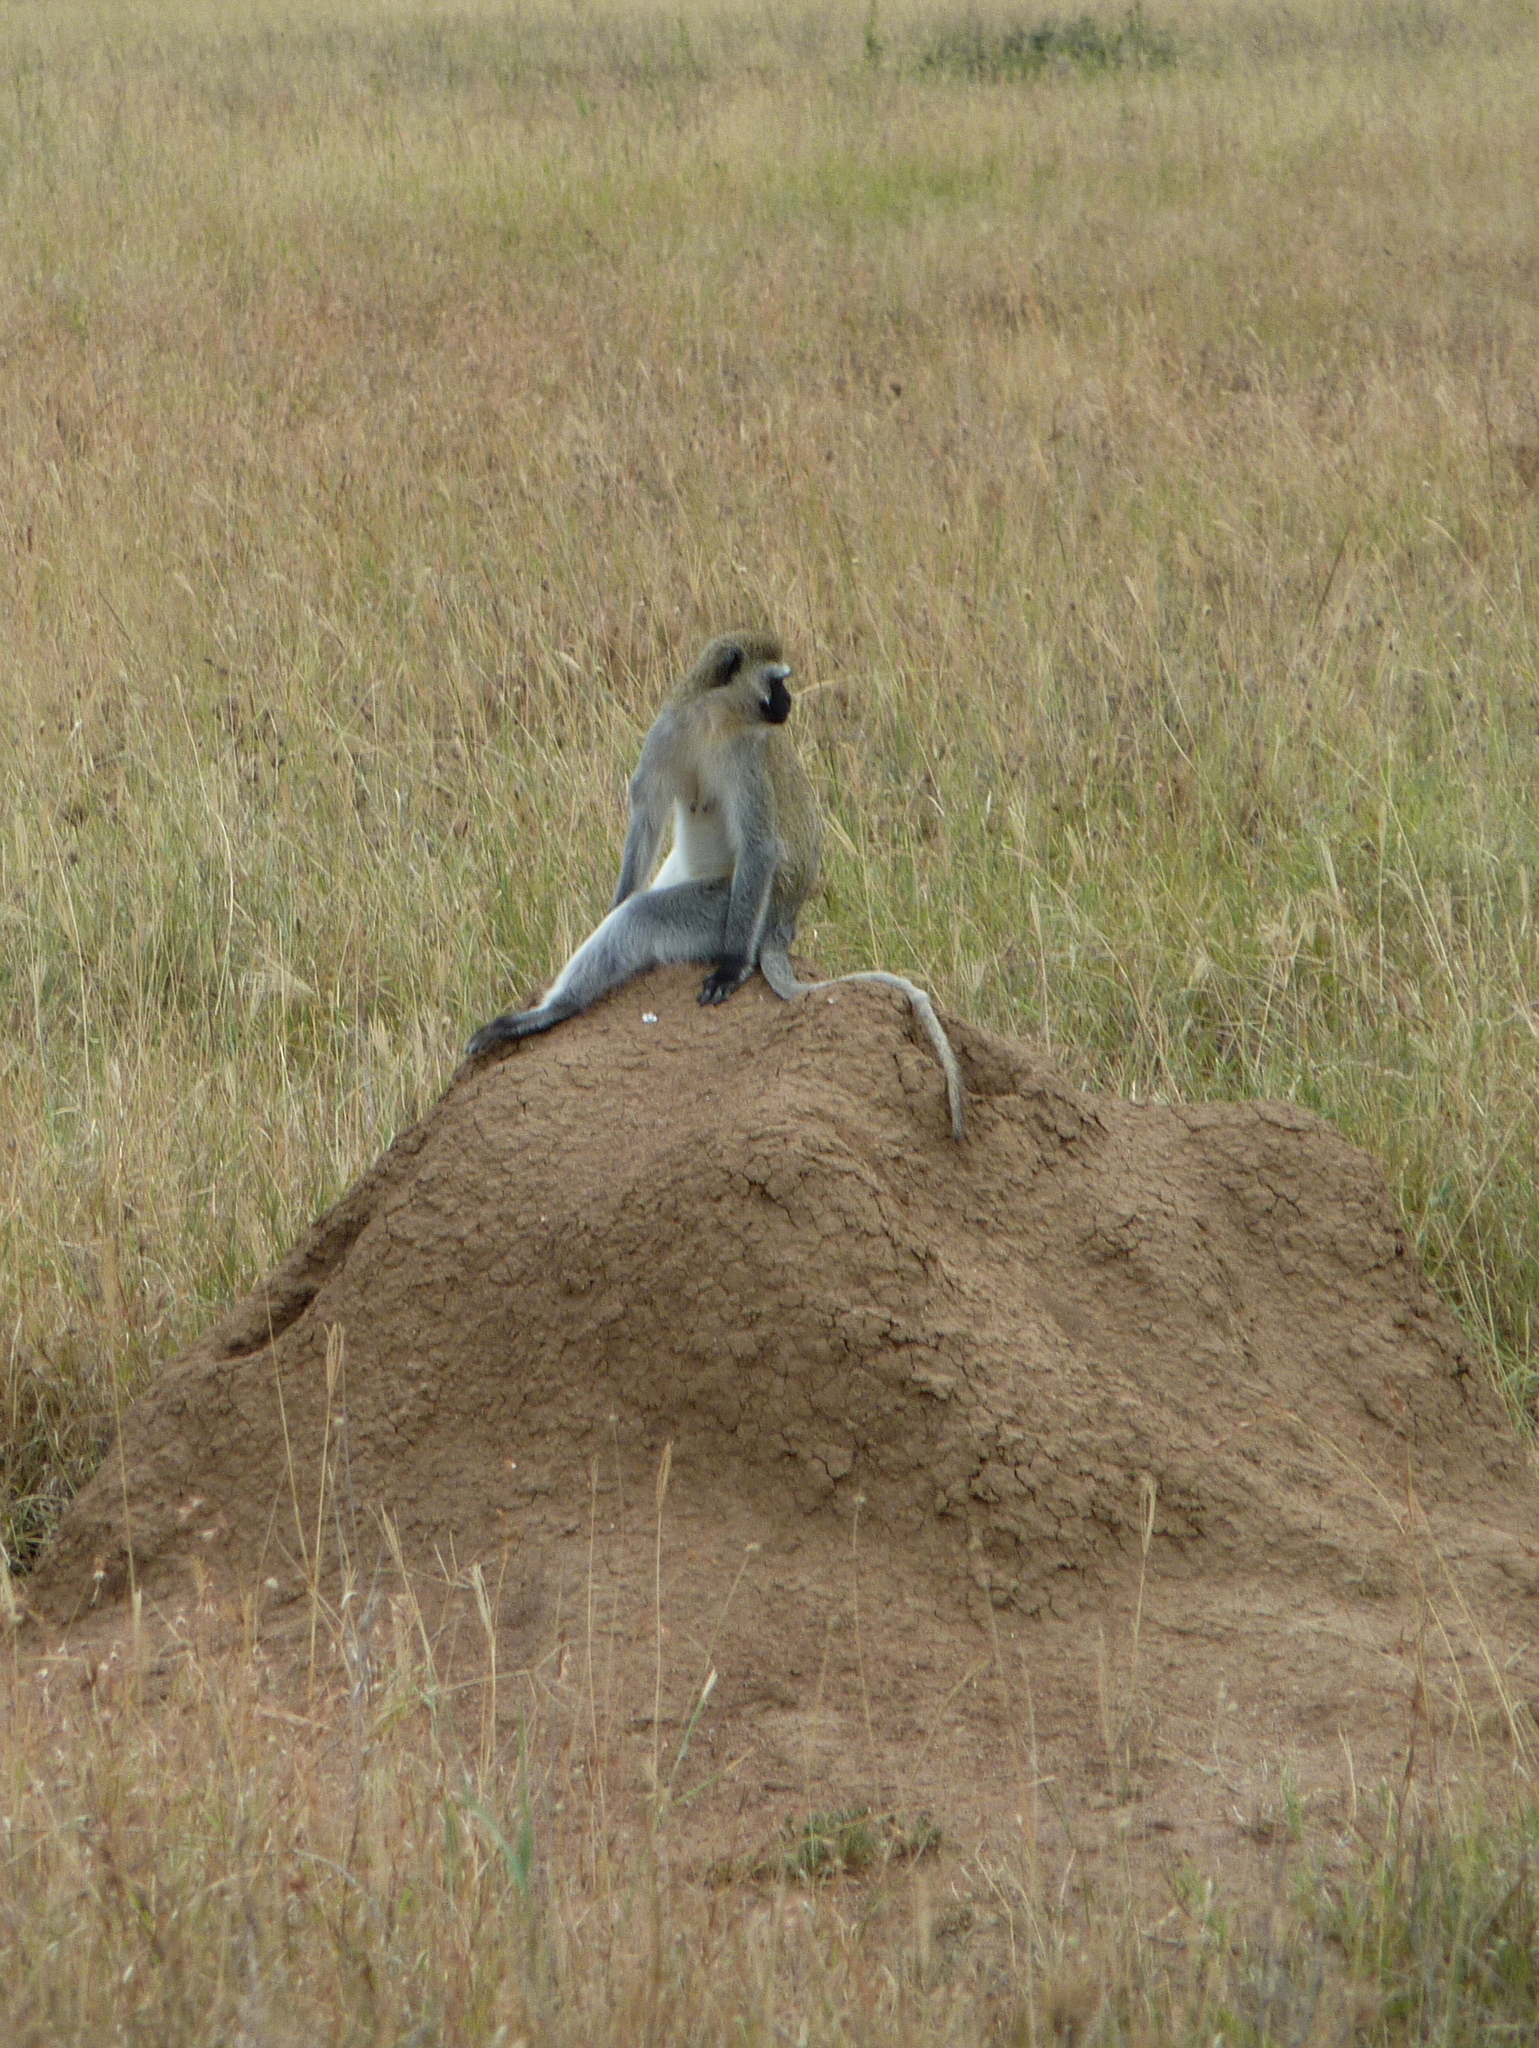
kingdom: Animalia
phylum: Chordata
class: Mammalia
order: Primates
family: Cercopithecidae
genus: Chlorocebus
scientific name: Chlorocebus pygerythrus
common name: Vervet monkey
